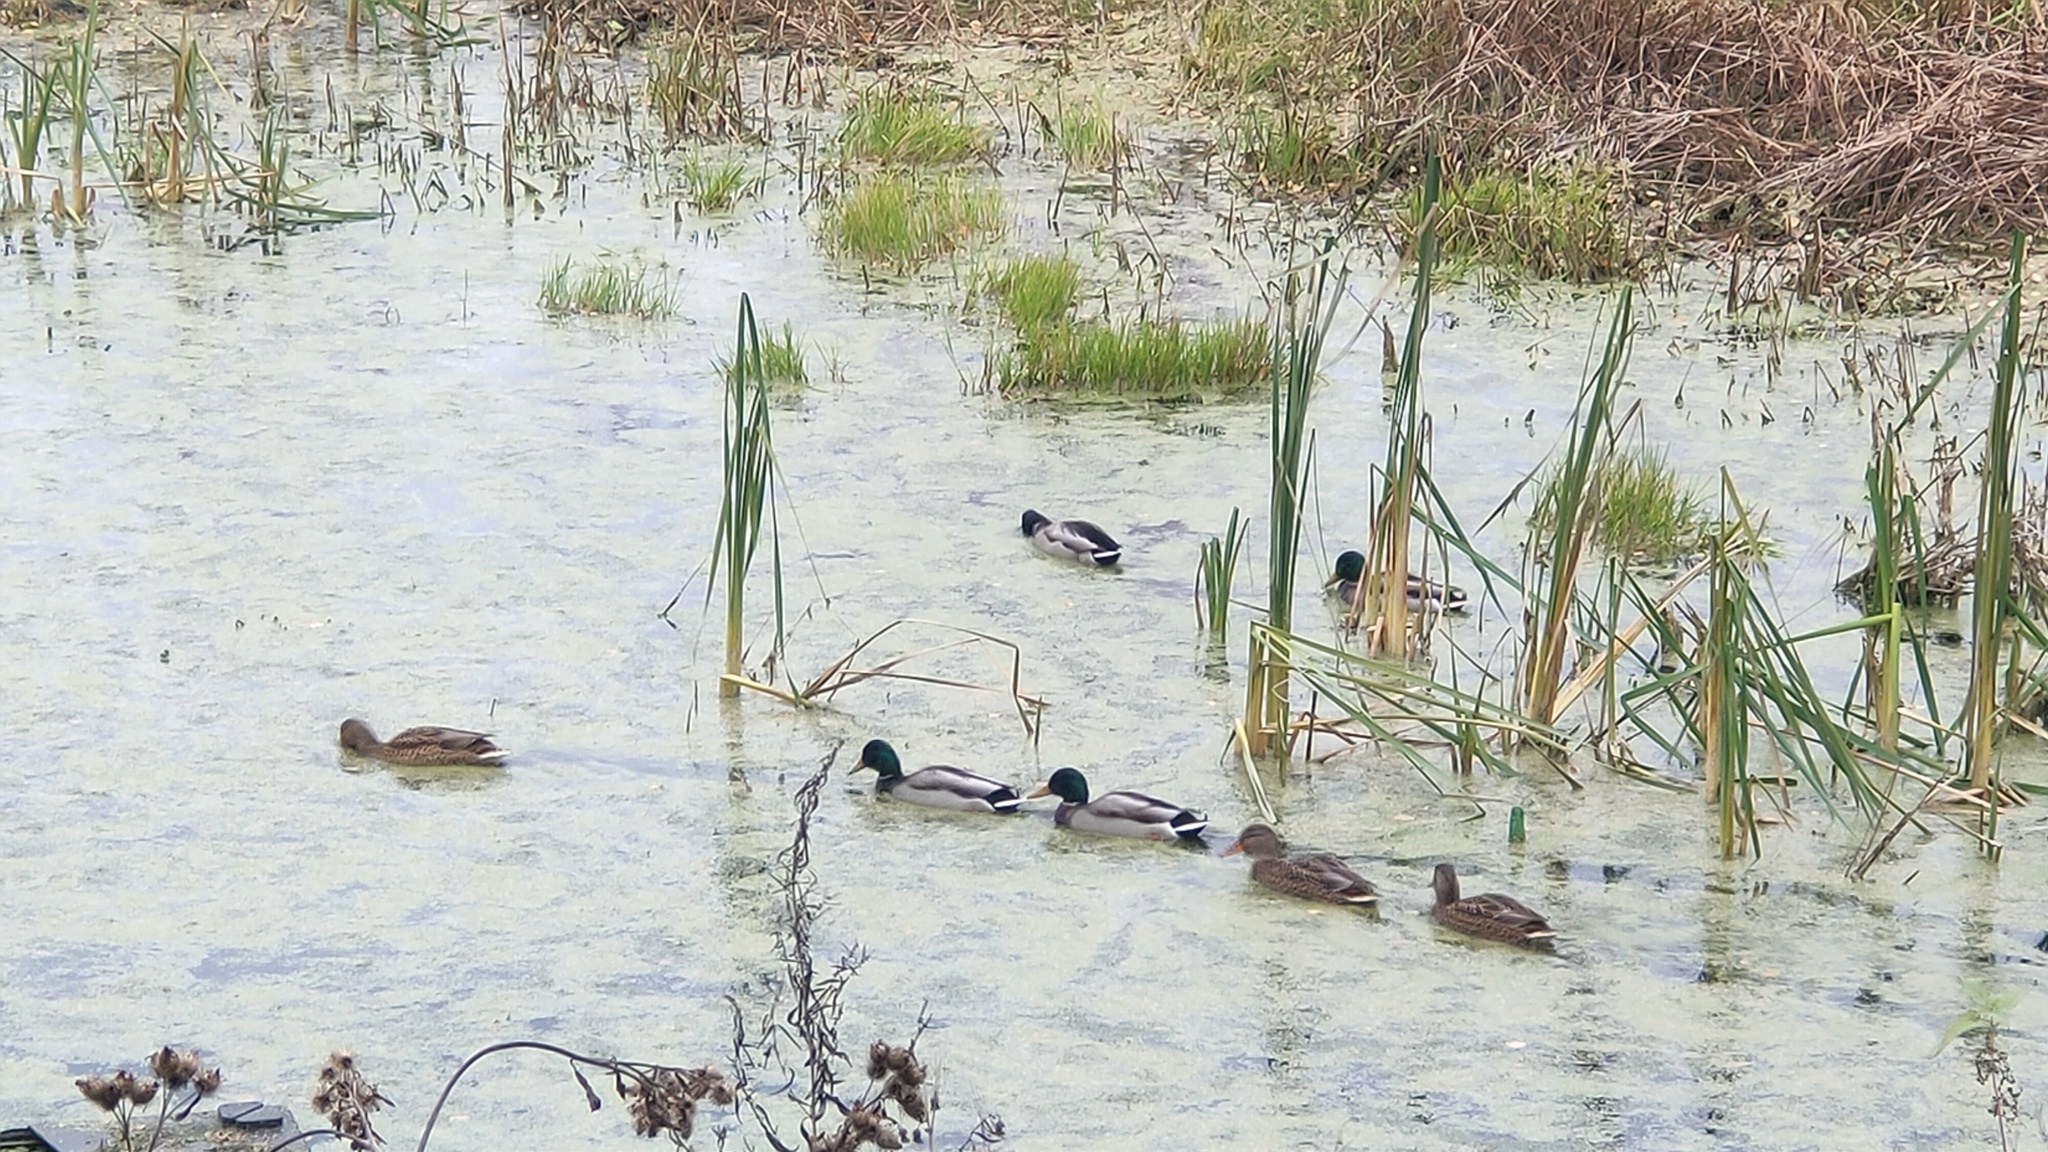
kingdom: Animalia
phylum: Chordata
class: Aves
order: Anseriformes
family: Anatidae
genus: Anas
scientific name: Anas platyrhynchos
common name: Mallard
